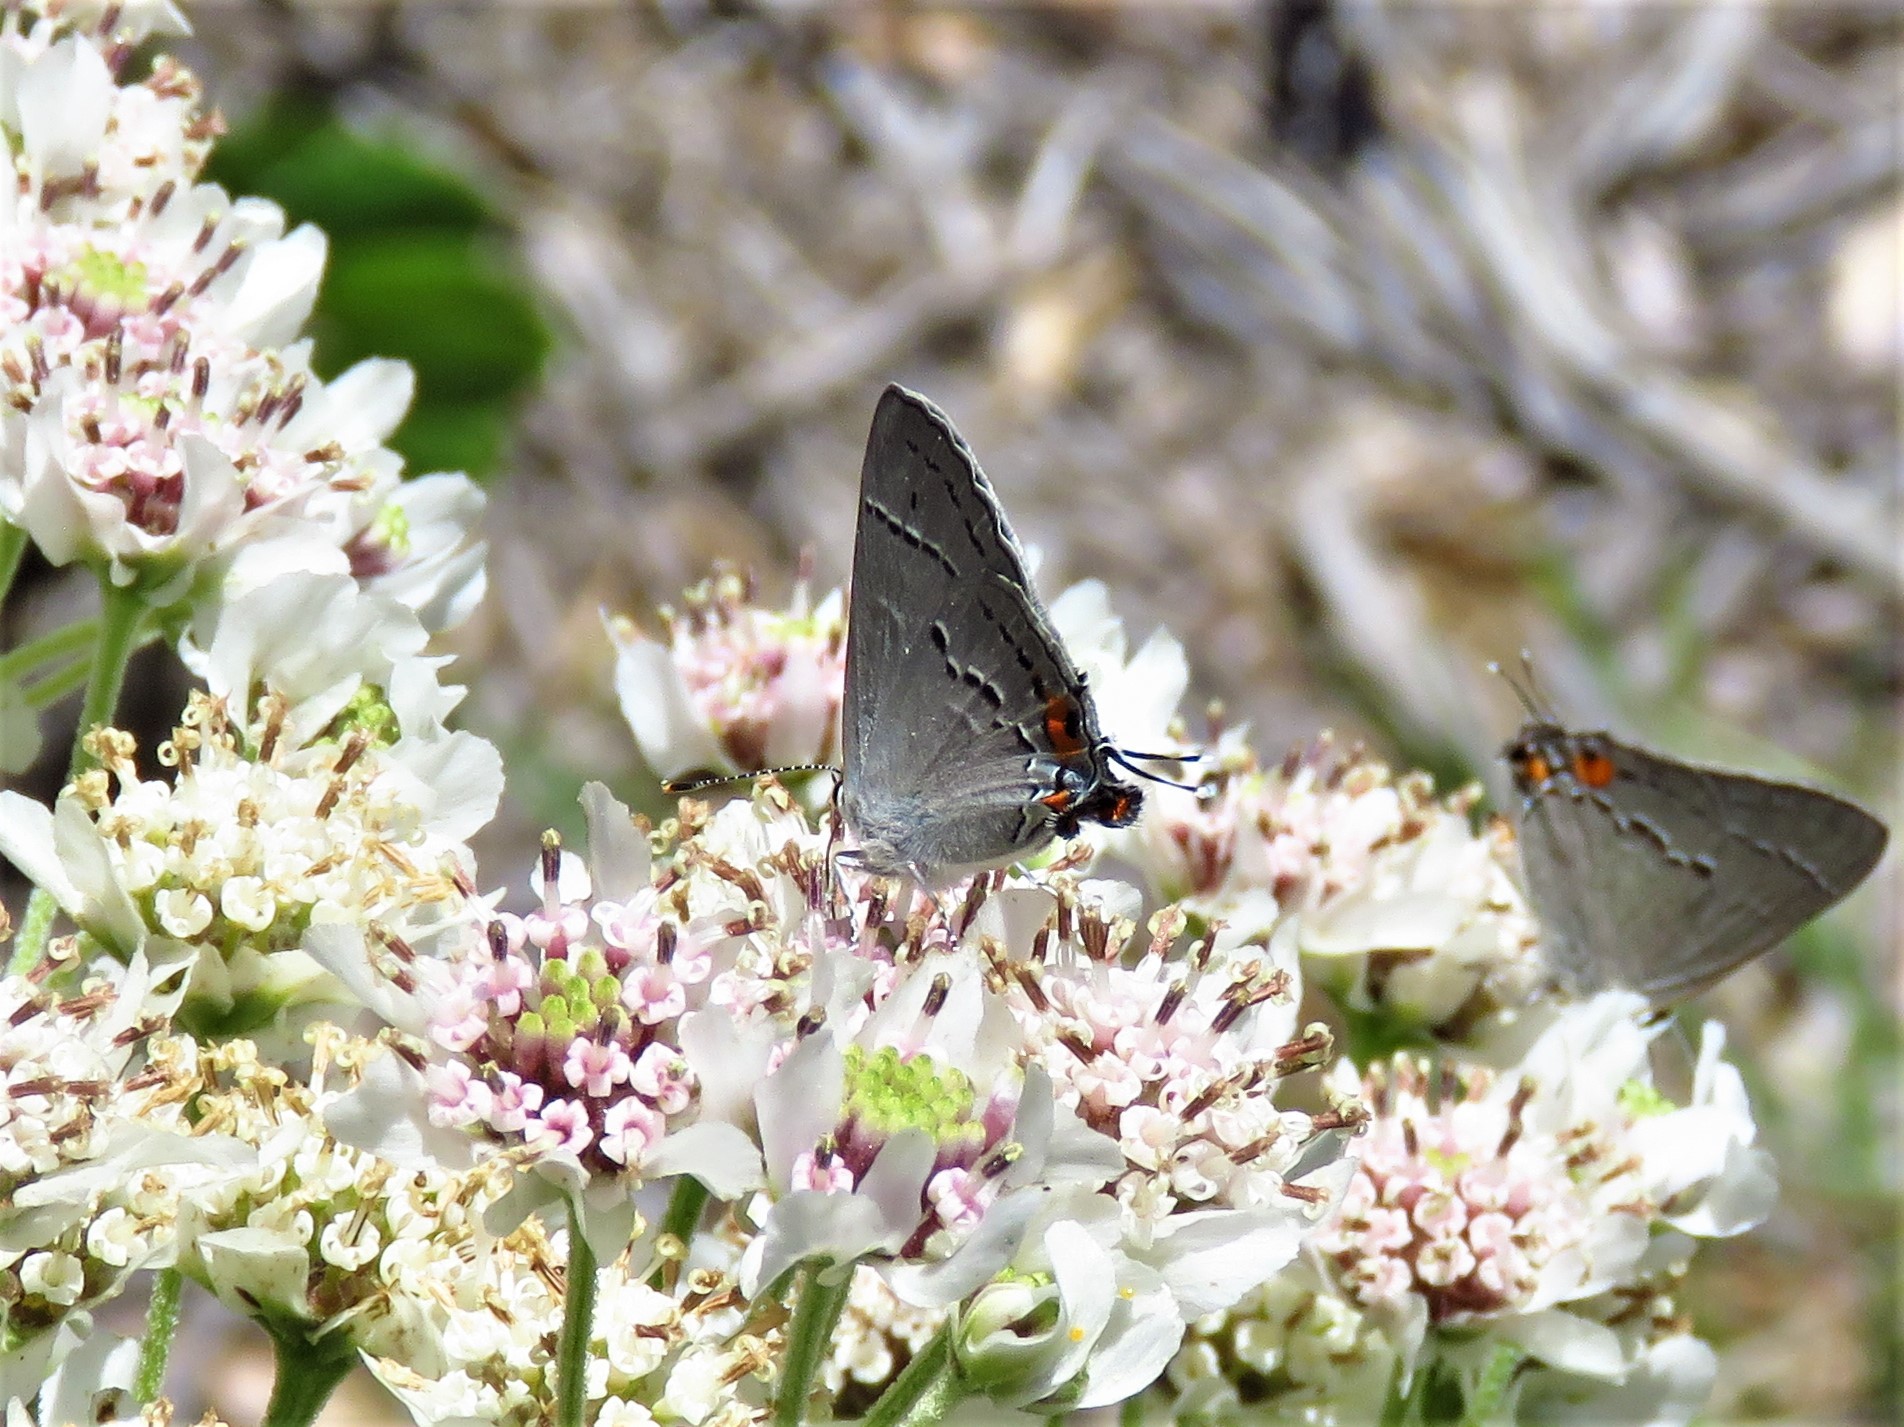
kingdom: Animalia
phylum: Arthropoda
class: Insecta
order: Lepidoptera
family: Lycaenidae
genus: Strymon
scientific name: Strymon melinus
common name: Gray hairstreak
